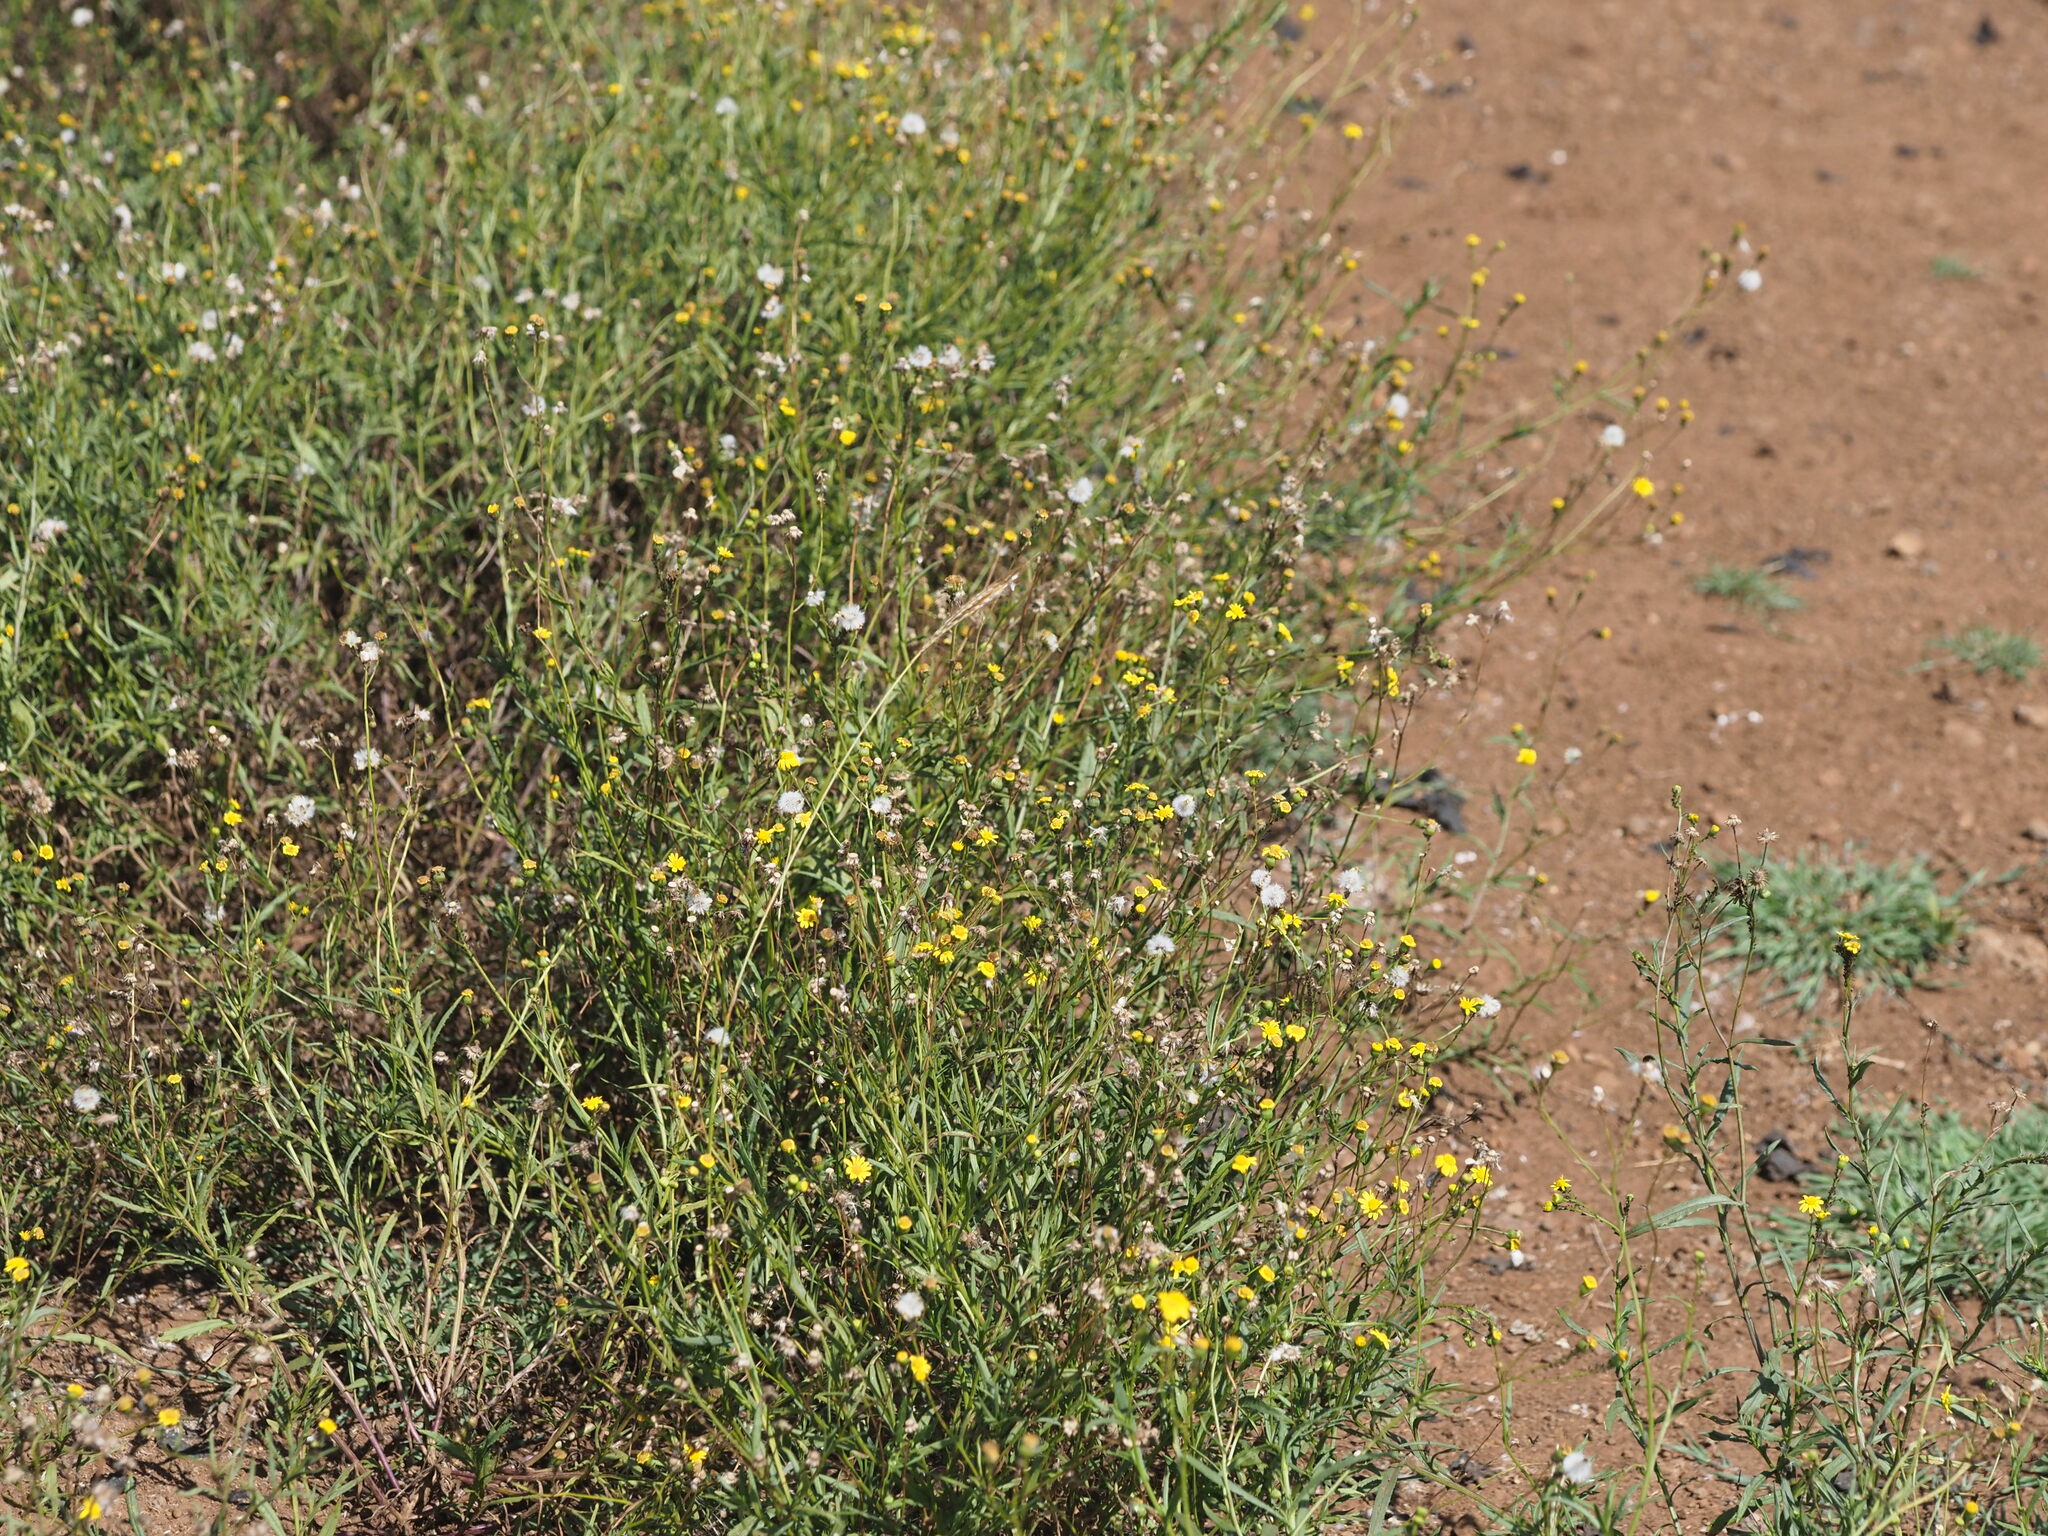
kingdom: Plantae
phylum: Tracheophyta
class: Magnoliopsida
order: Asterales
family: Asteraceae
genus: Senecio
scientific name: Senecio madagascariensis
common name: Madagascar ragwort
